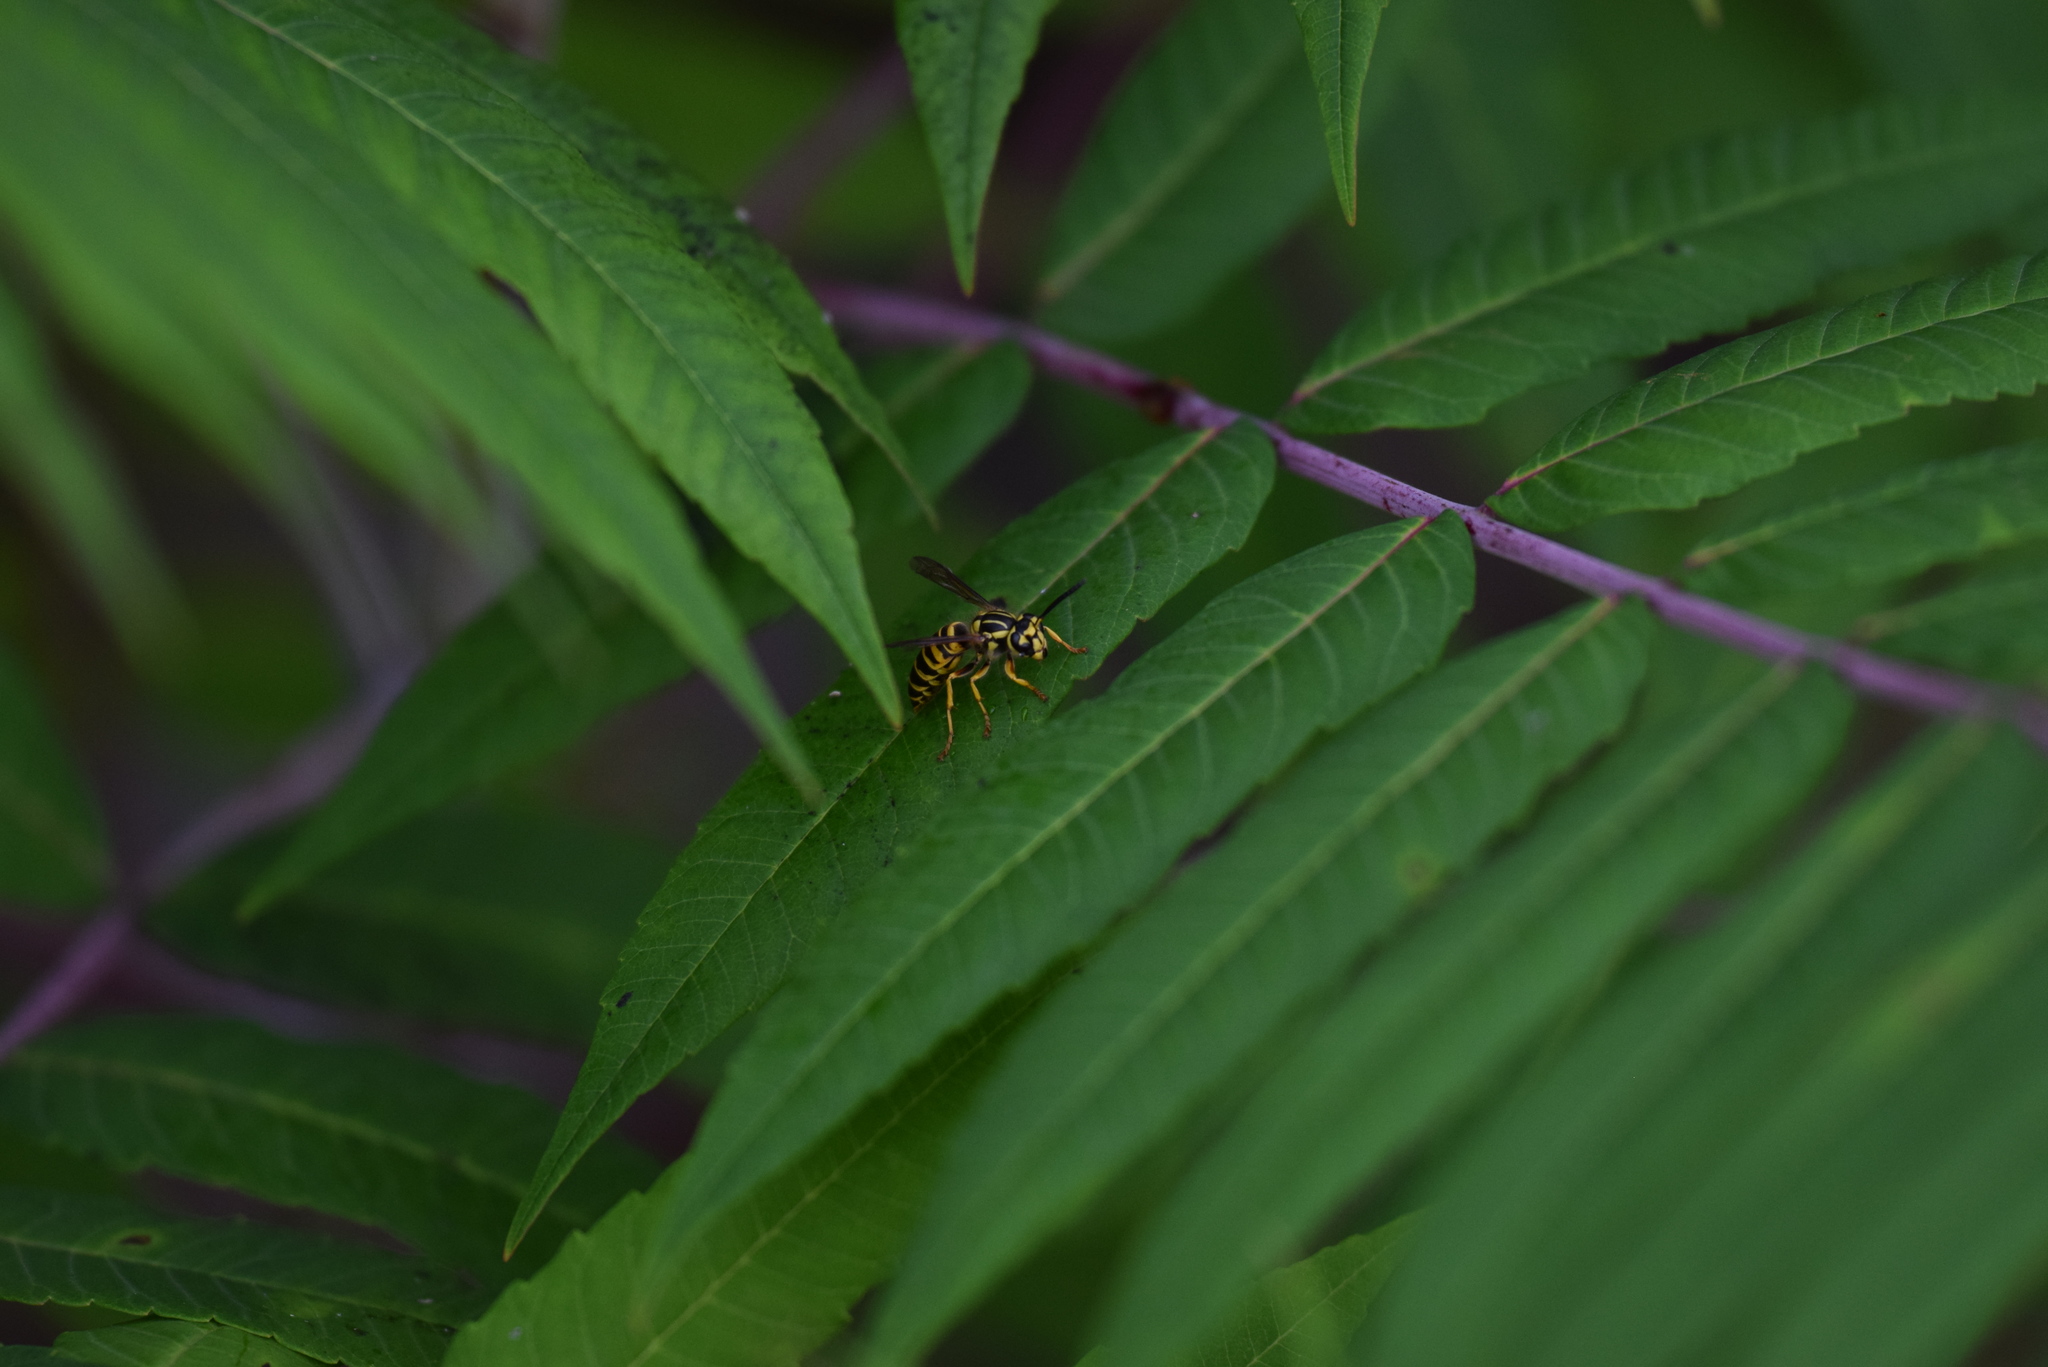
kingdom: Animalia
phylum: Arthropoda
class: Insecta
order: Hymenoptera
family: Vespidae
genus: Vespula
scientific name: Vespula squamosa
